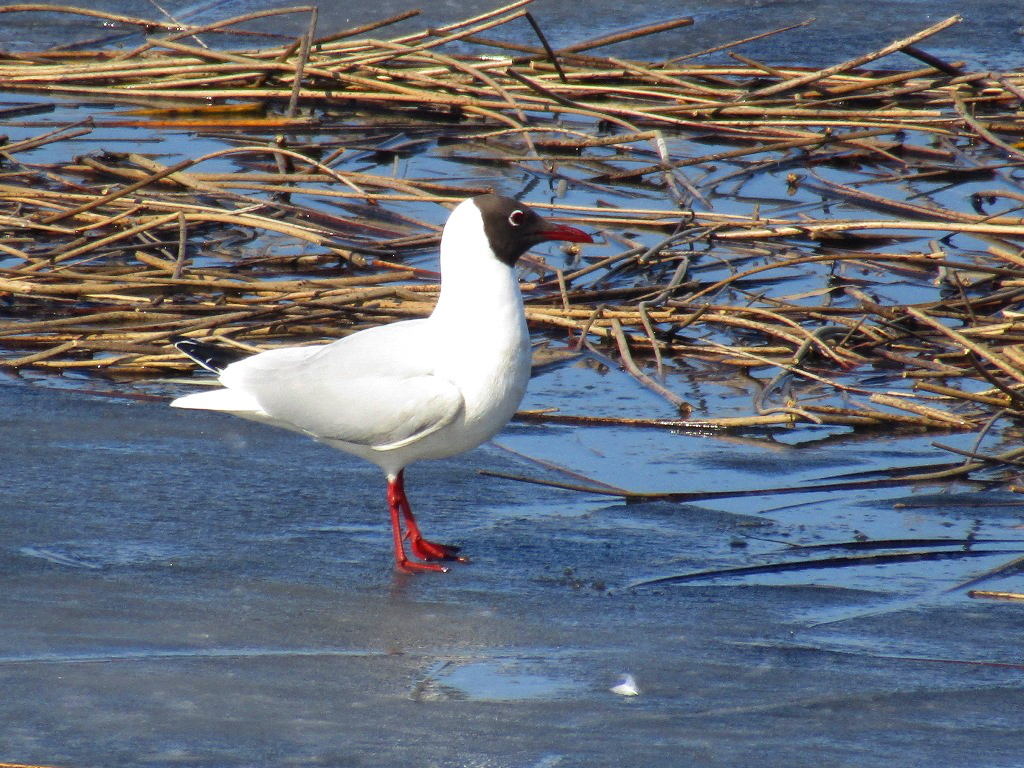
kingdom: Animalia
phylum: Chordata
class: Aves
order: Charadriiformes
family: Laridae
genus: Chroicocephalus
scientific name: Chroicocephalus ridibundus
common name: Black-headed gull
